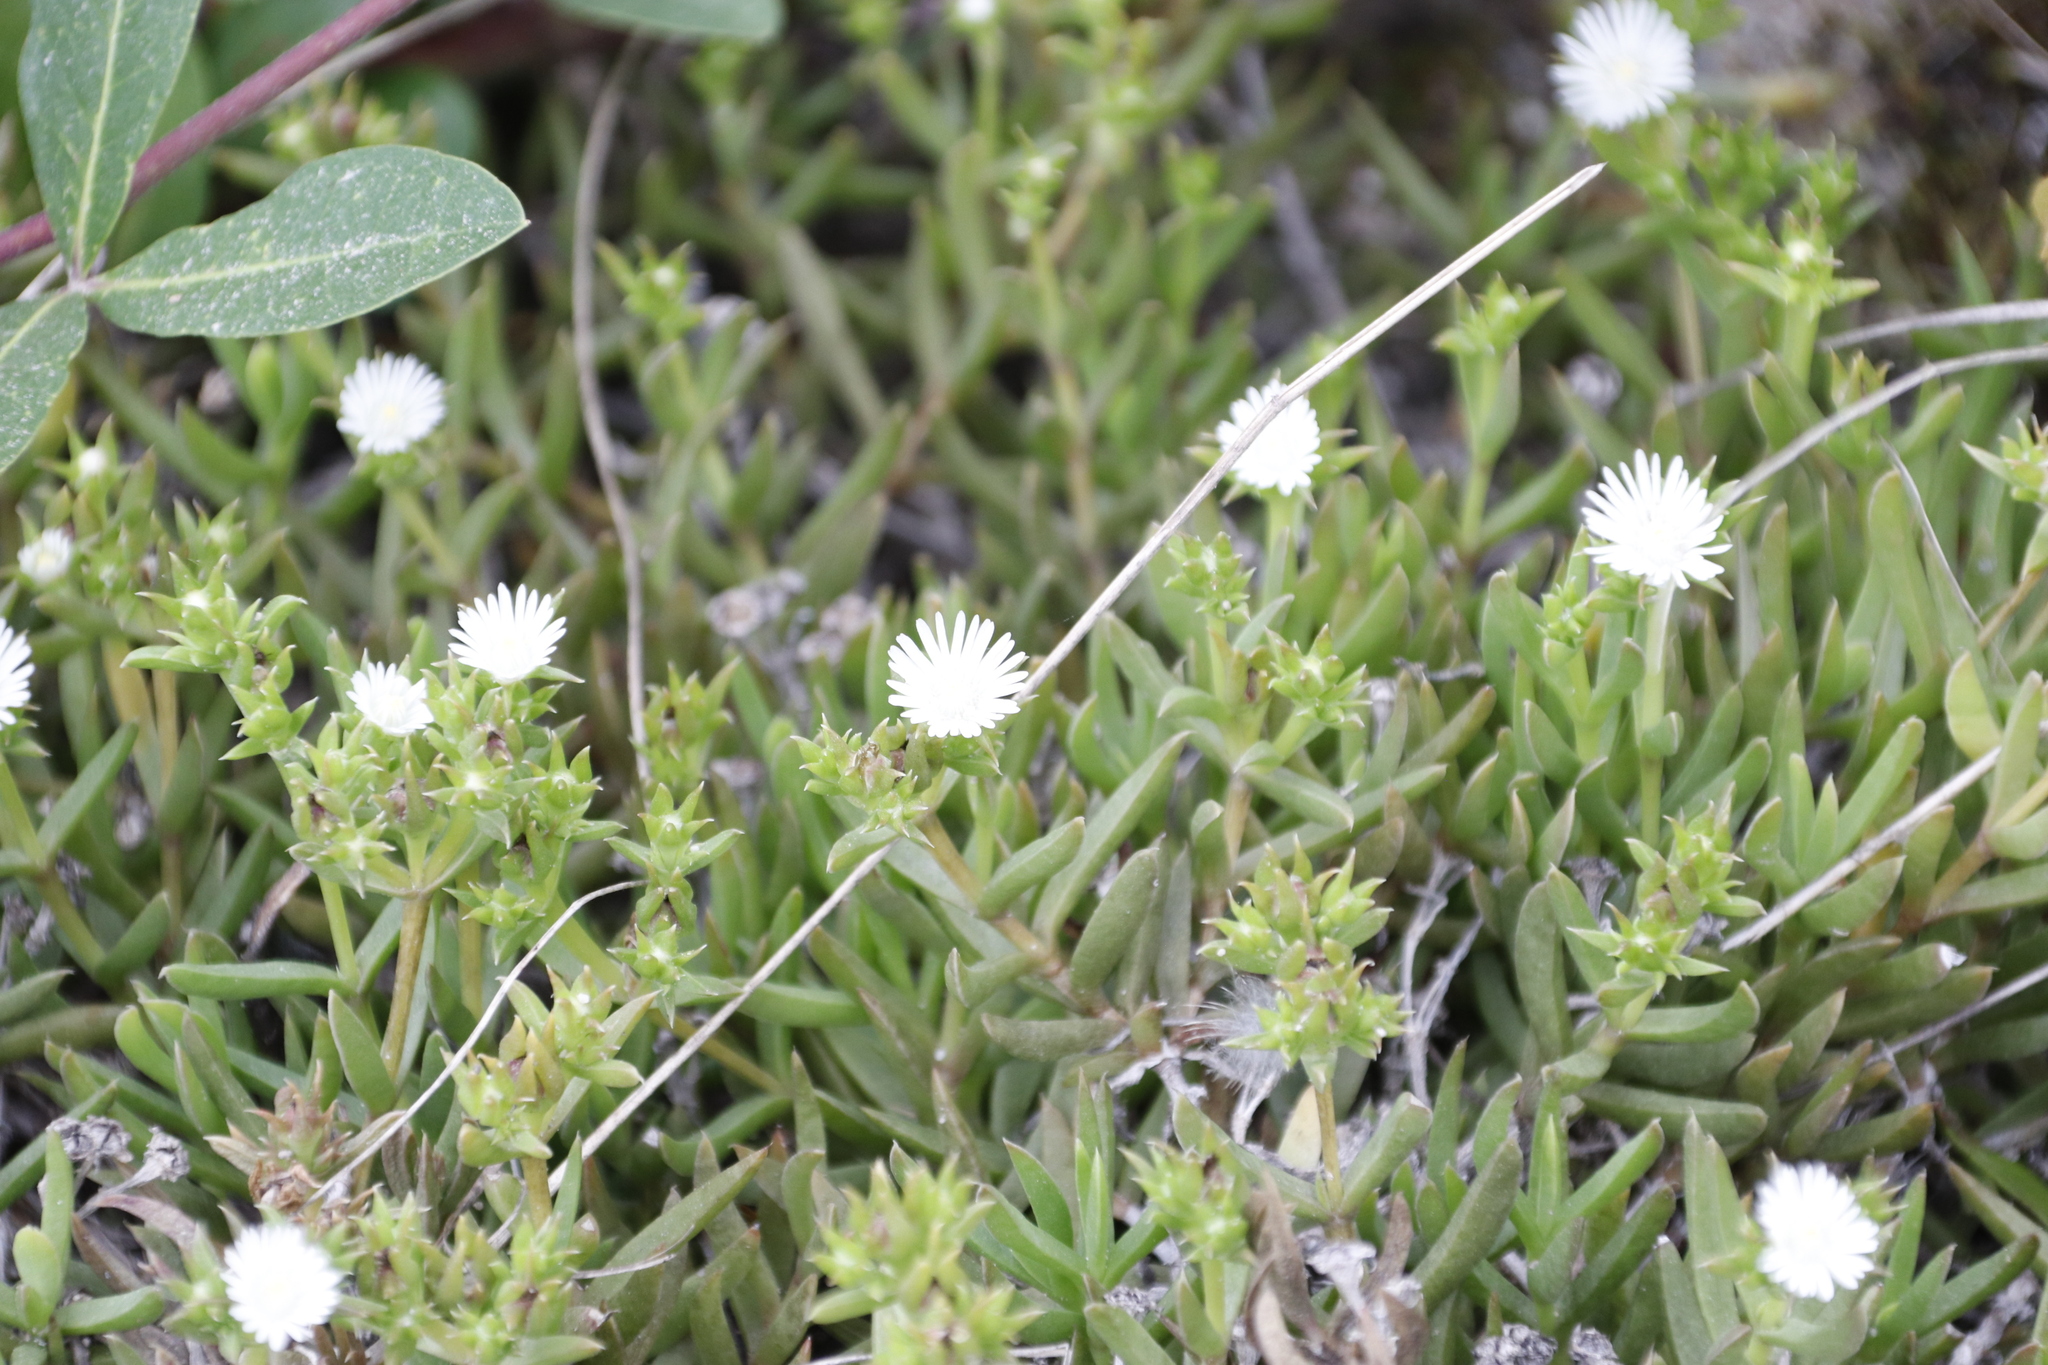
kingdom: Plantae
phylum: Tracheophyta
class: Magnoliopsida
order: Caryophyllales
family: Aizoaceae
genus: Delosperma
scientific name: Delosperma inconspicuum
